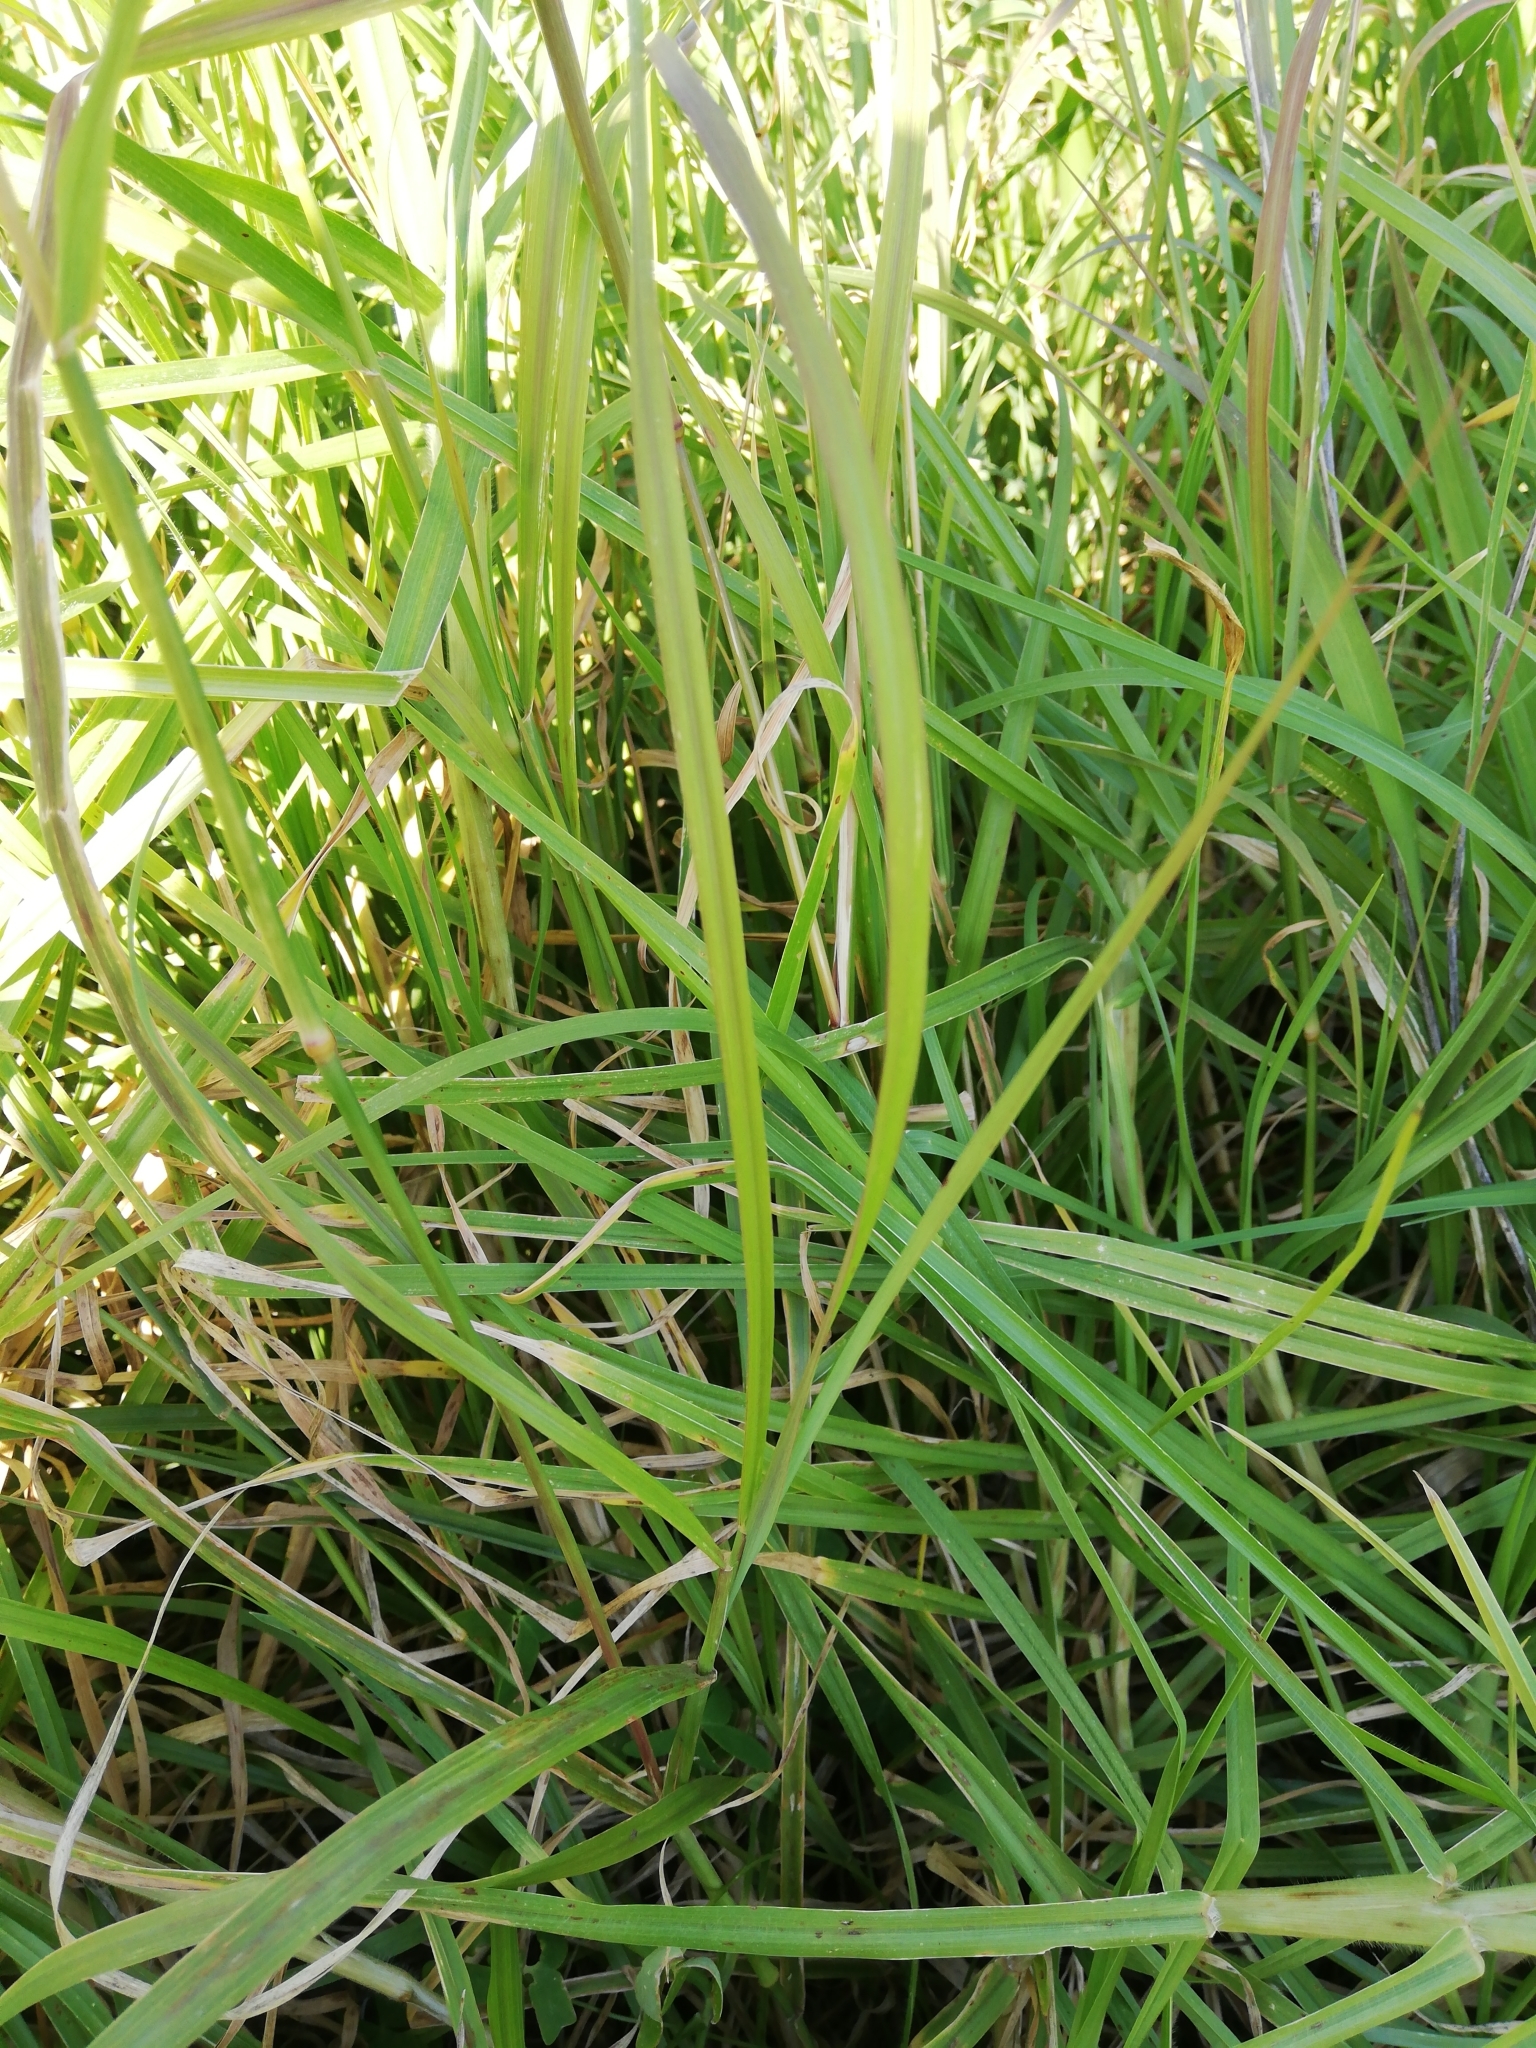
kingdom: Plantae
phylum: Tracheophyta
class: Liliopsida
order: Poales
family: Poaceae
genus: Chloris
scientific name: Chloris gayana
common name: Rhodes grass
